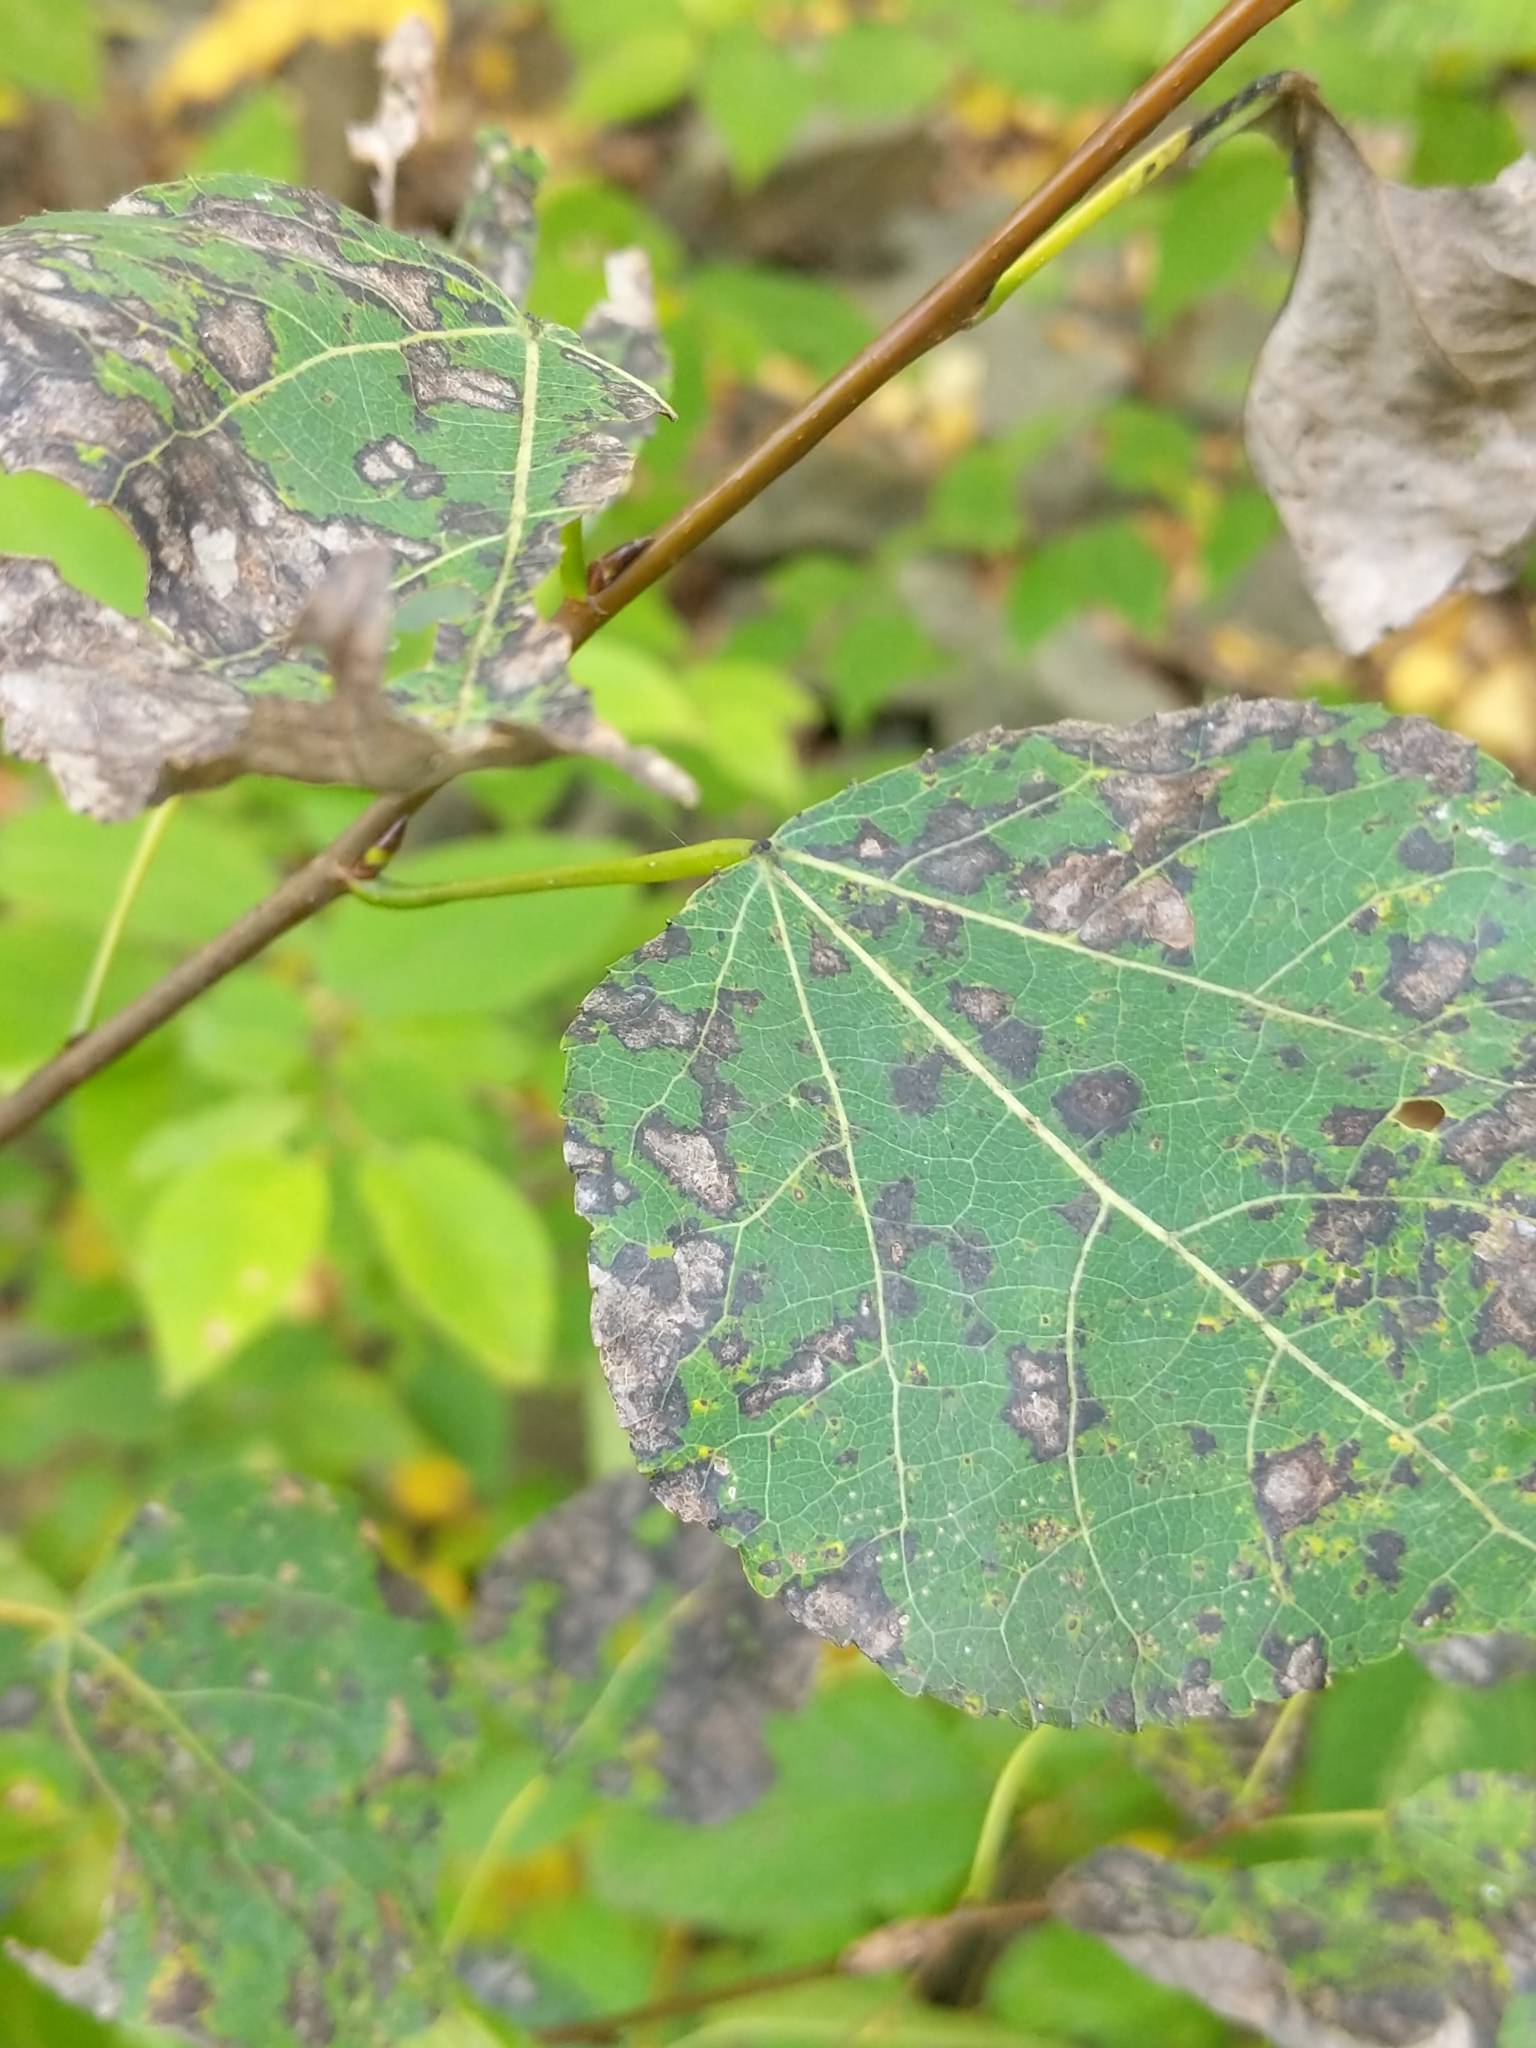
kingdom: Plantae
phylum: Tracheophyta
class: Magnoliopsida
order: Malpighiales
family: Salicaceae
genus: Populus
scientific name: Populus tremuloides
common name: Quaking aspen
